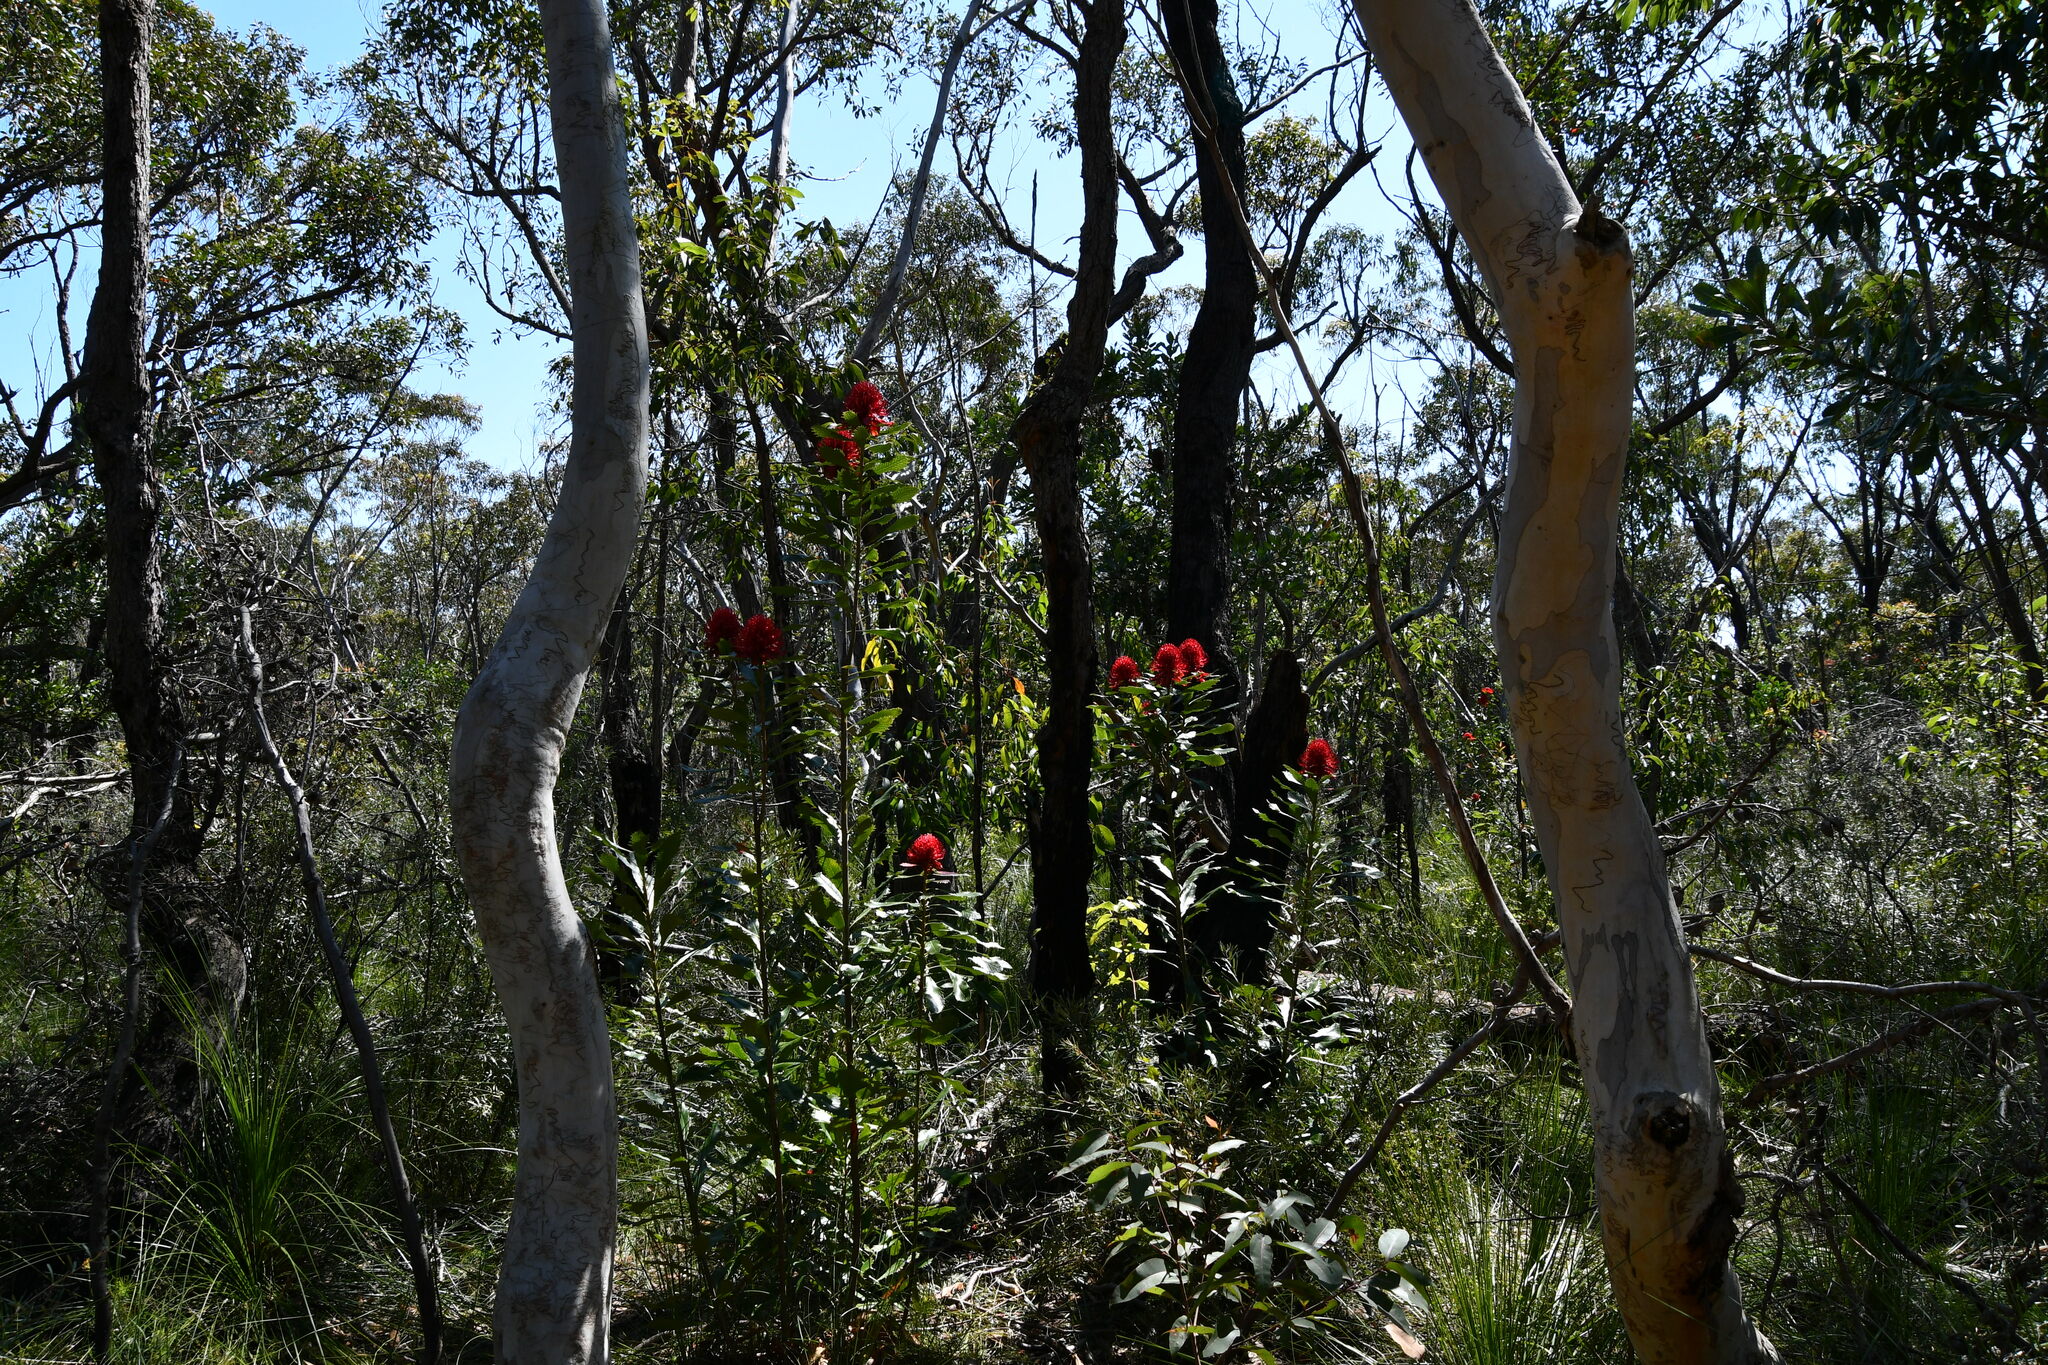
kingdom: Plantae
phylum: Tracheophyta
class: Magnoliopsida
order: Proteales
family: Proteaceae
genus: Telopea
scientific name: Telopea speciosissima
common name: New south wales waratah
